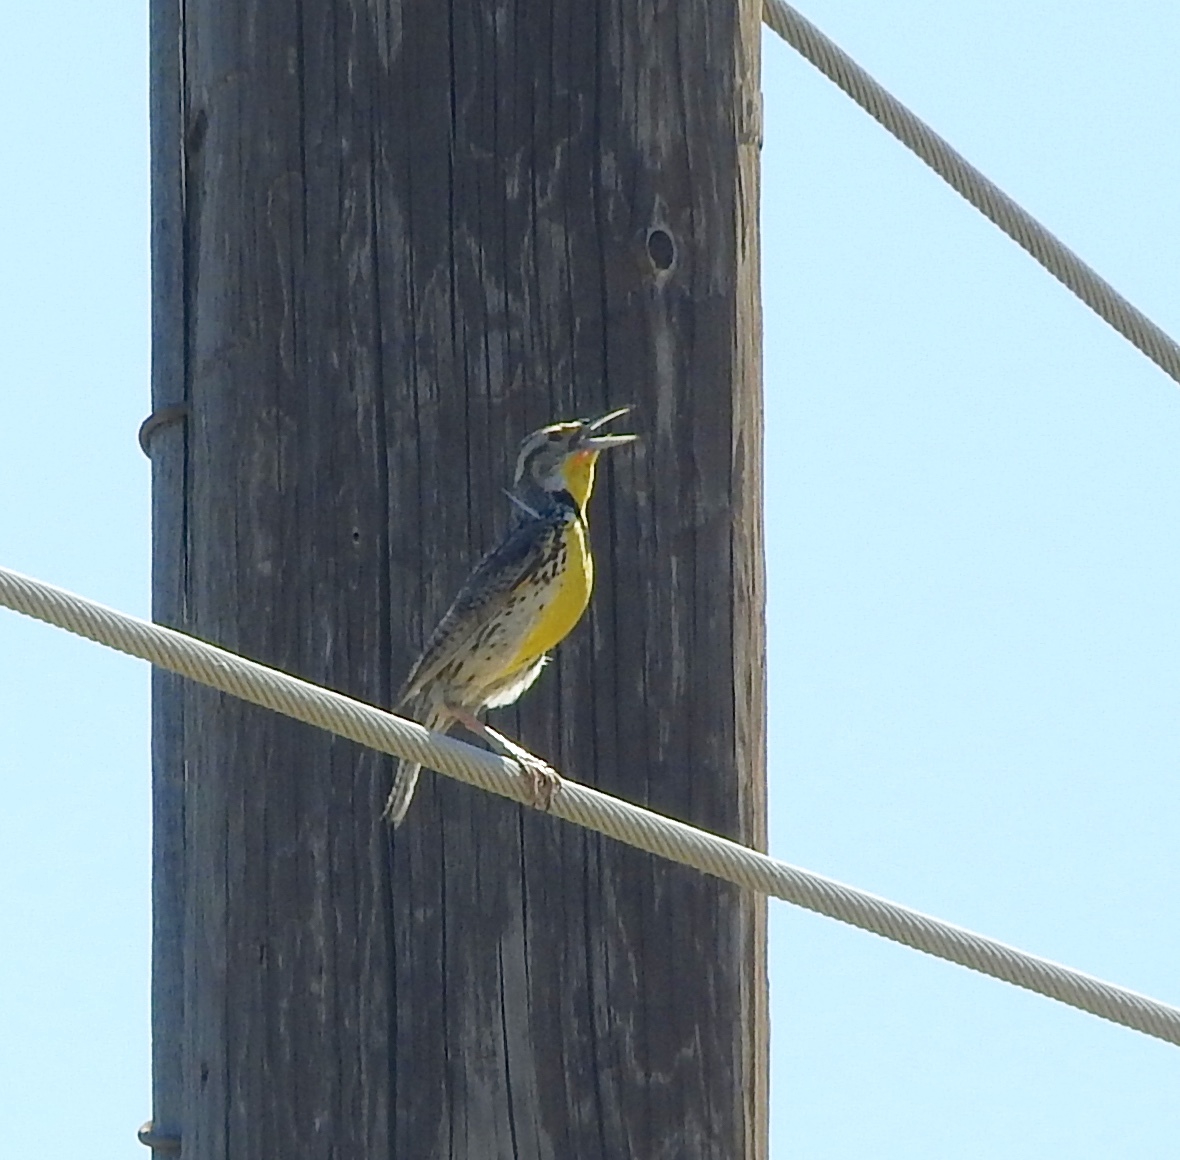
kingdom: Animalia
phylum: Chordata
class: Aves
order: Passeriformes
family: Icteridae
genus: Sturnella
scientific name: Sturnella neglecta
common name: Western meadowlark
